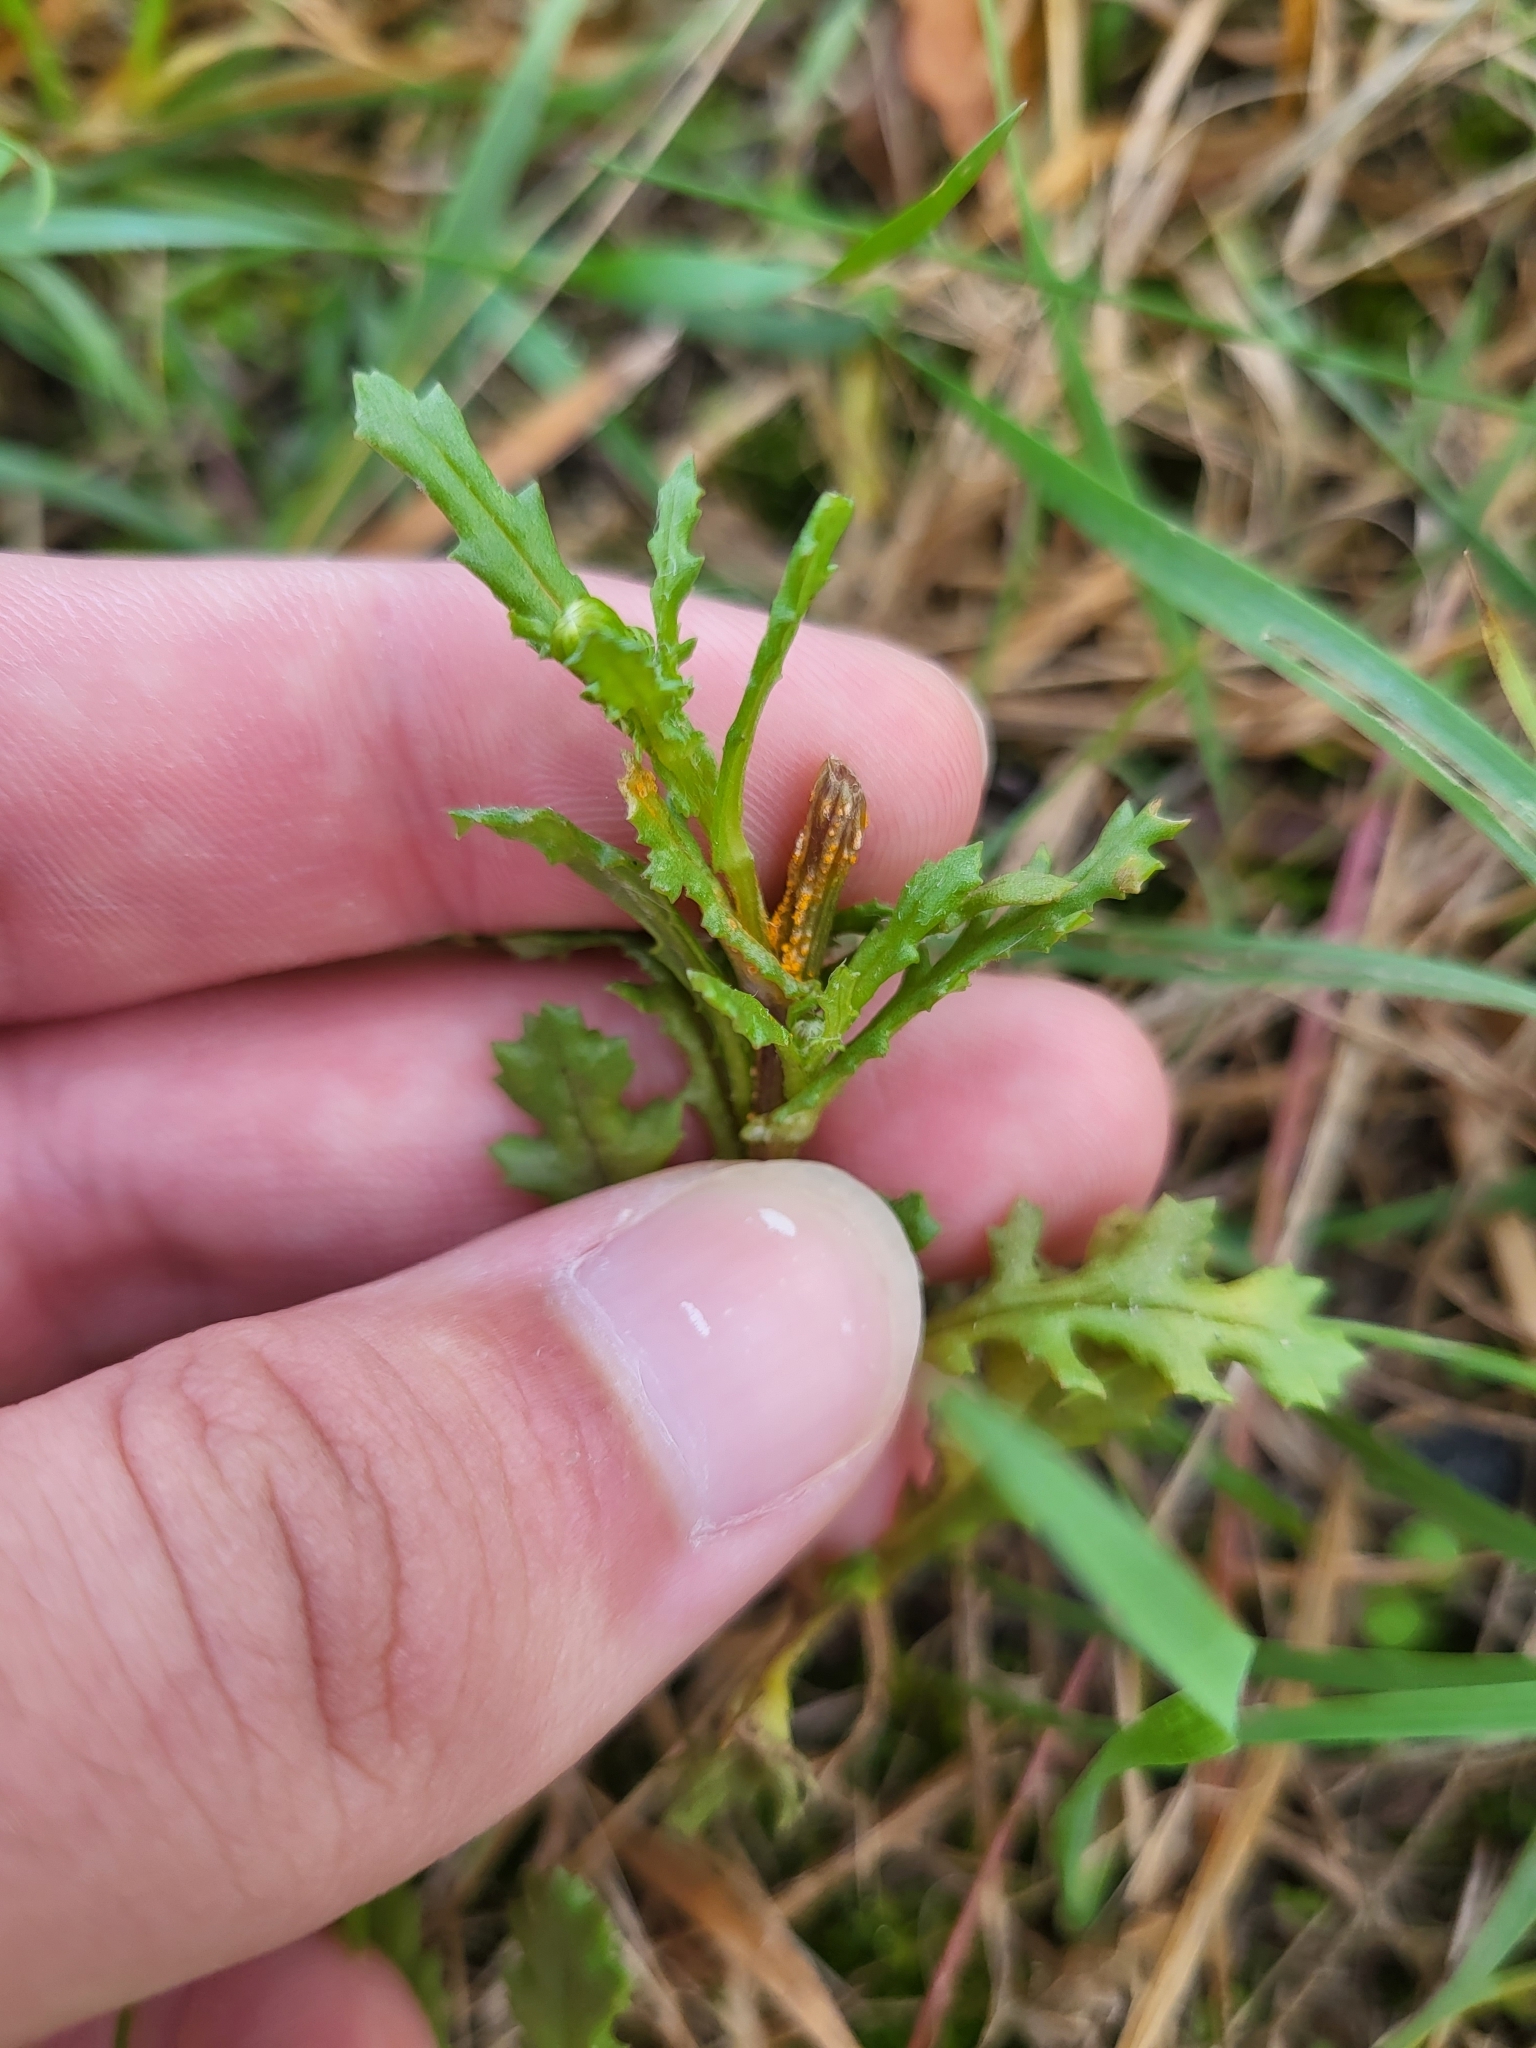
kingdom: Fungi
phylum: Basidiomycota
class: Pucciniomycetes
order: Pucciniales
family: Pucciniaceae
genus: Puccinia
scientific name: Puccinia lagenophorae
